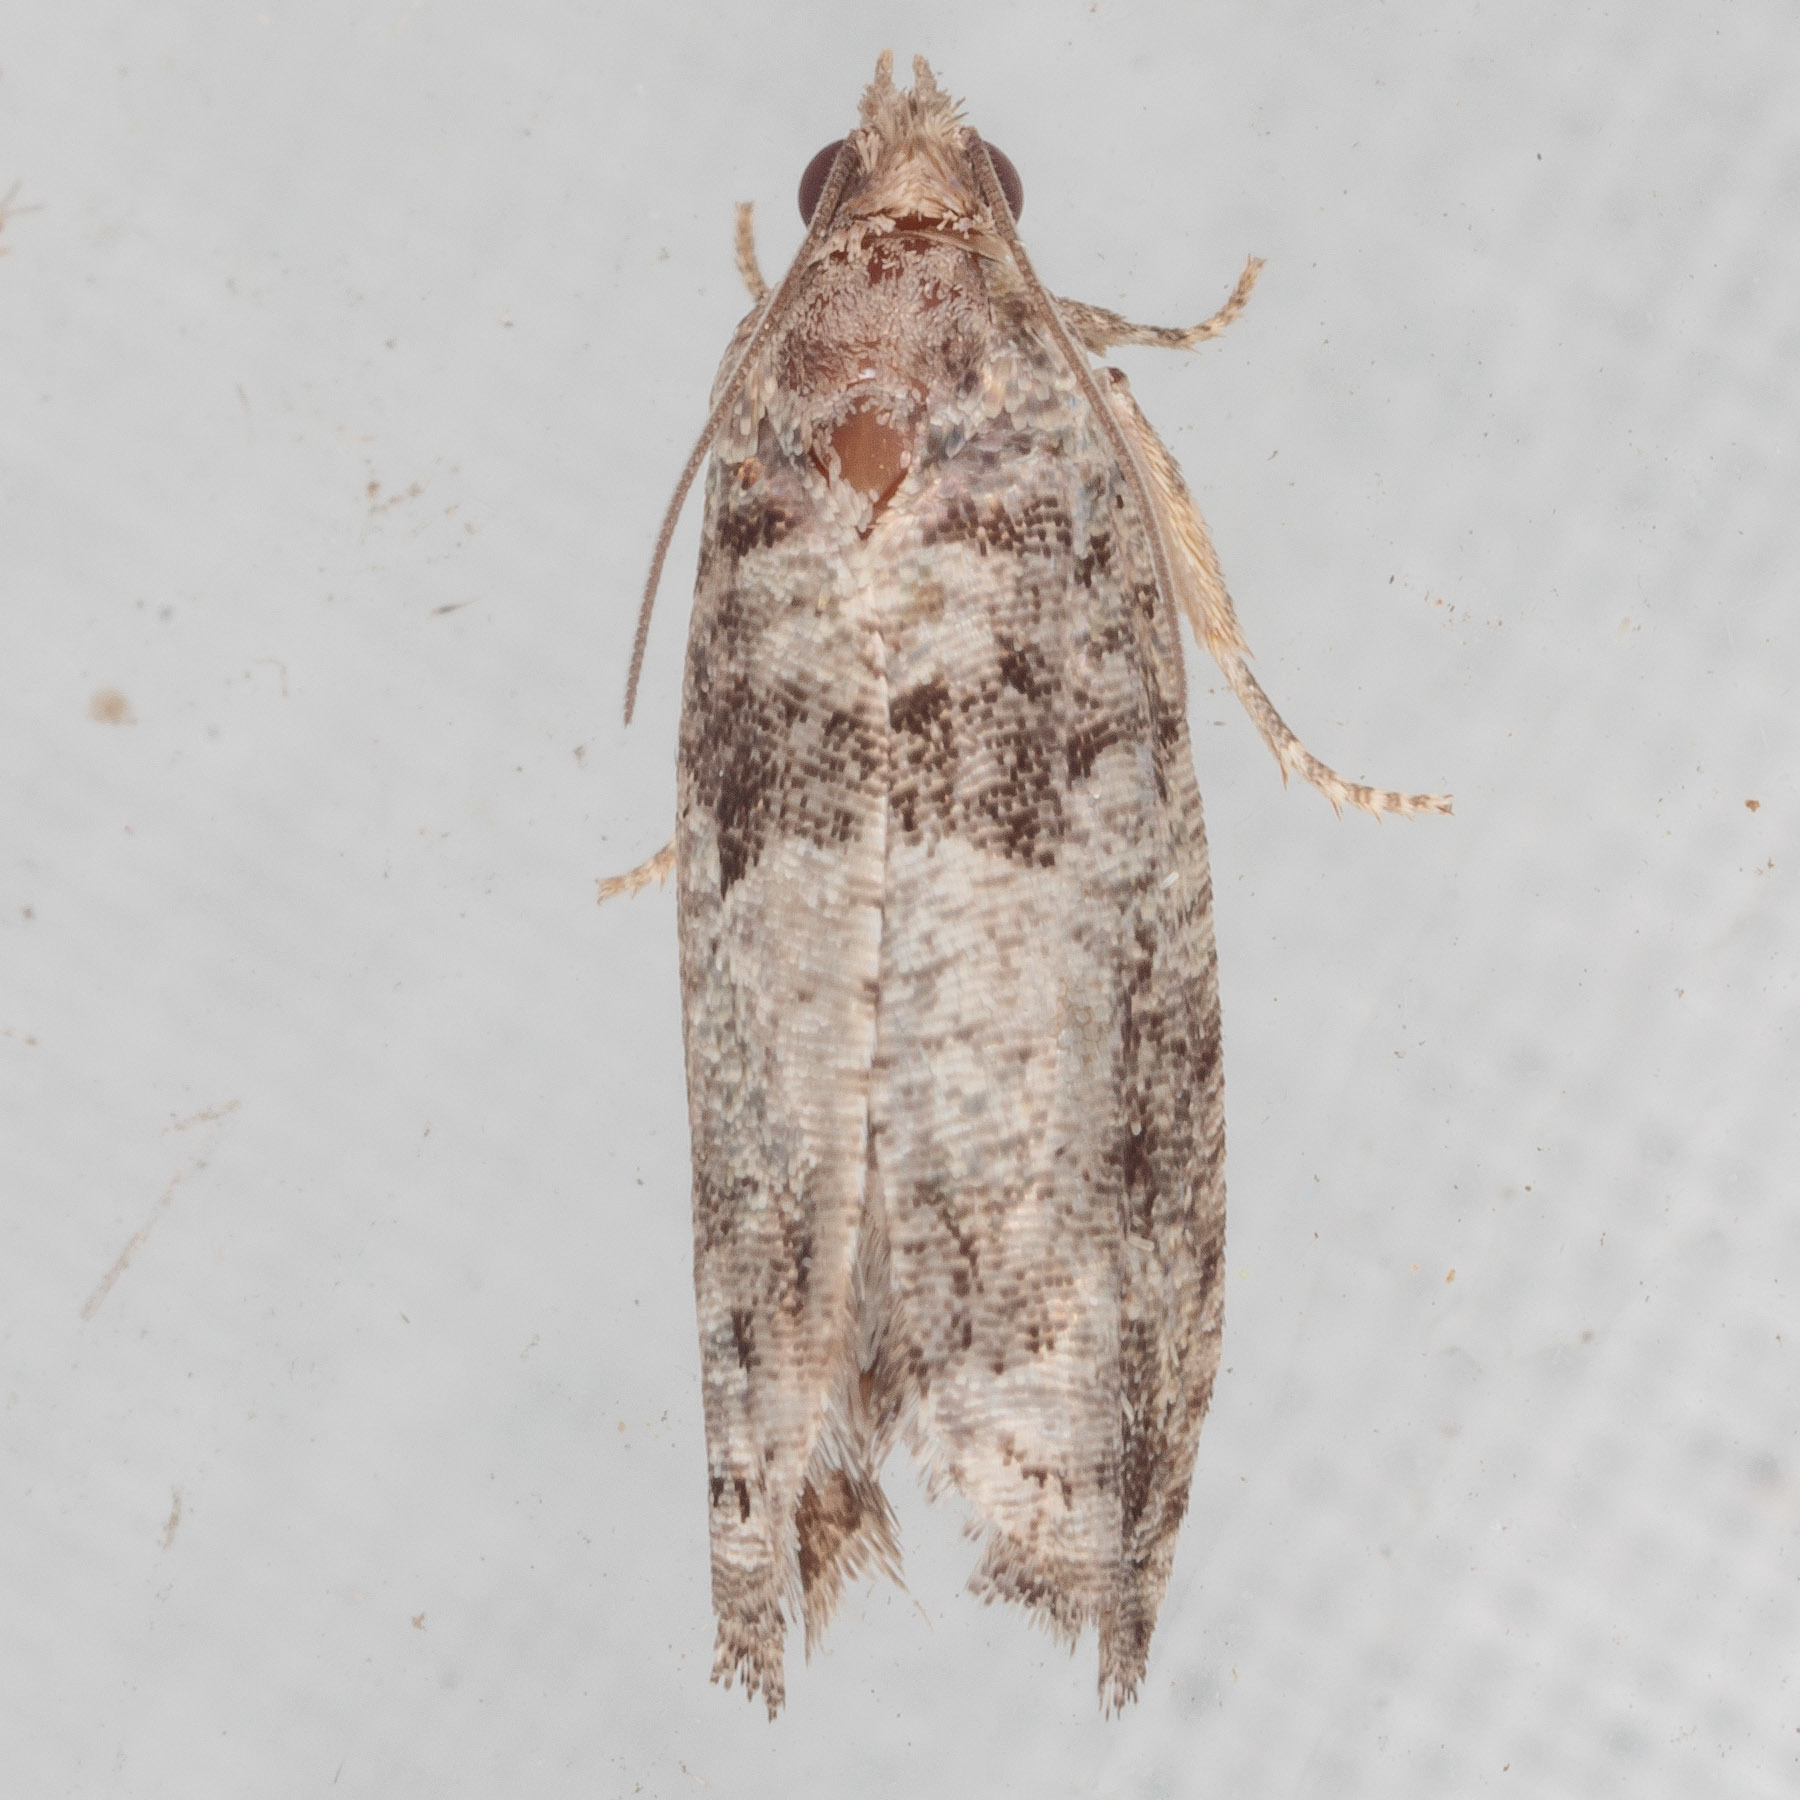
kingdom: Animalia
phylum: Arthropoda
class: Insecta
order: Lepidoptera
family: Tortricidae
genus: Pseudexentera
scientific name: Pseudexentera knudsoni
